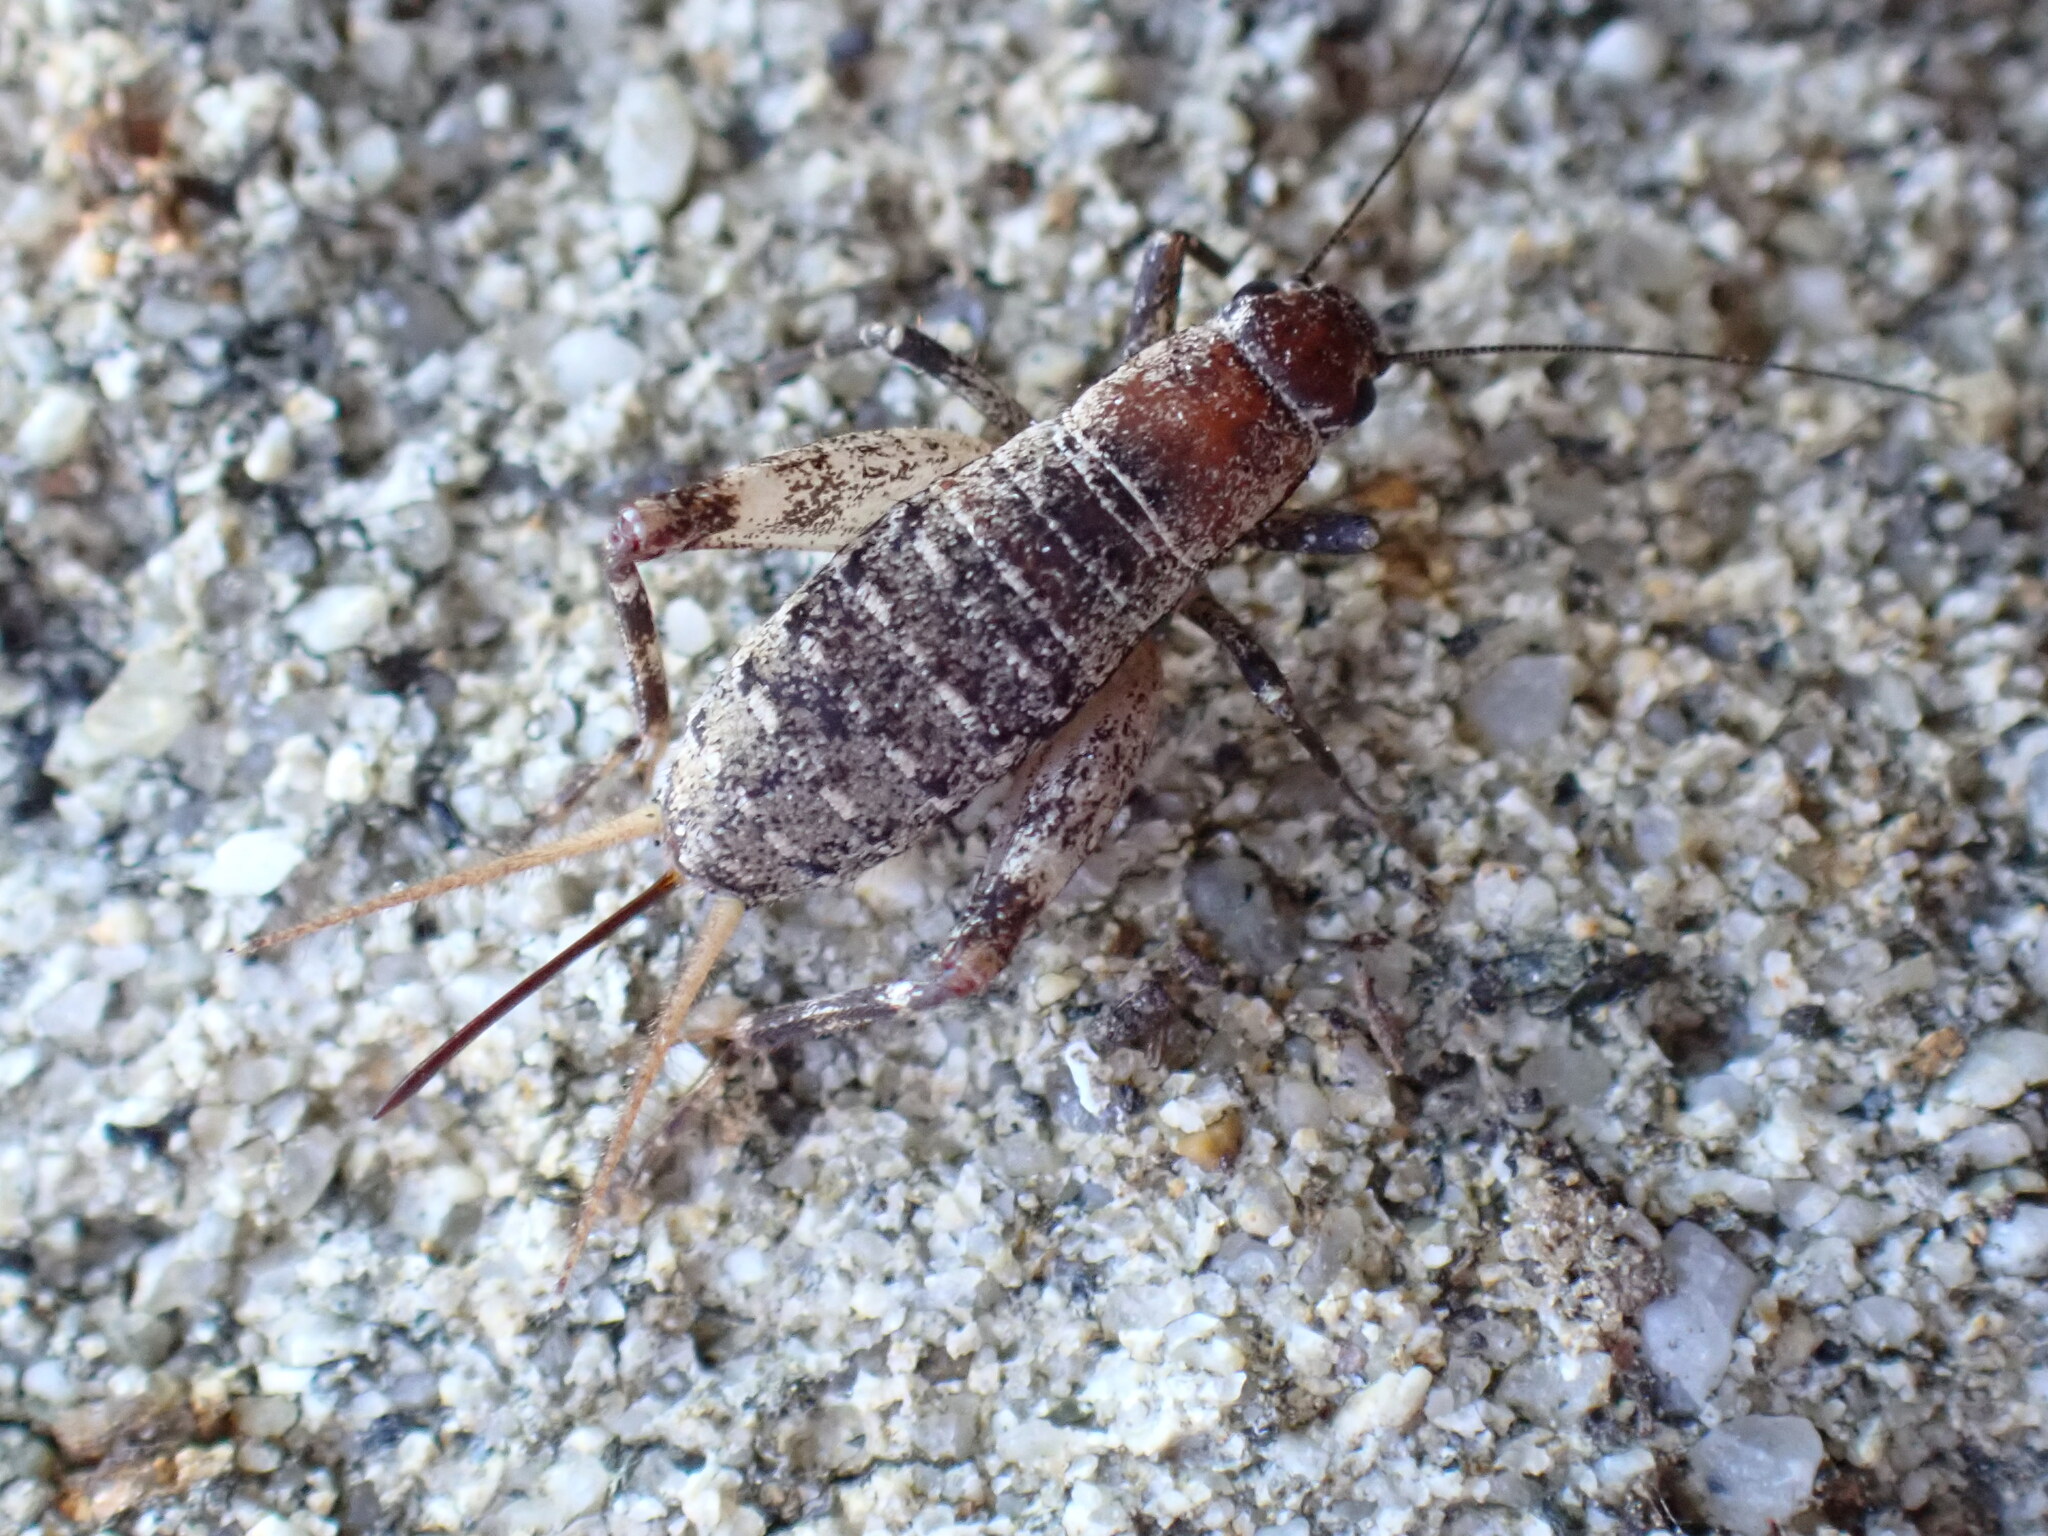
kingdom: Animalia
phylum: Arthropoda
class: Insecta
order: Orthoptera
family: Mogoplistidae
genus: Hoplosphyrum
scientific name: Hoplosphyrum boreale
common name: Long-winged scaly cricket
